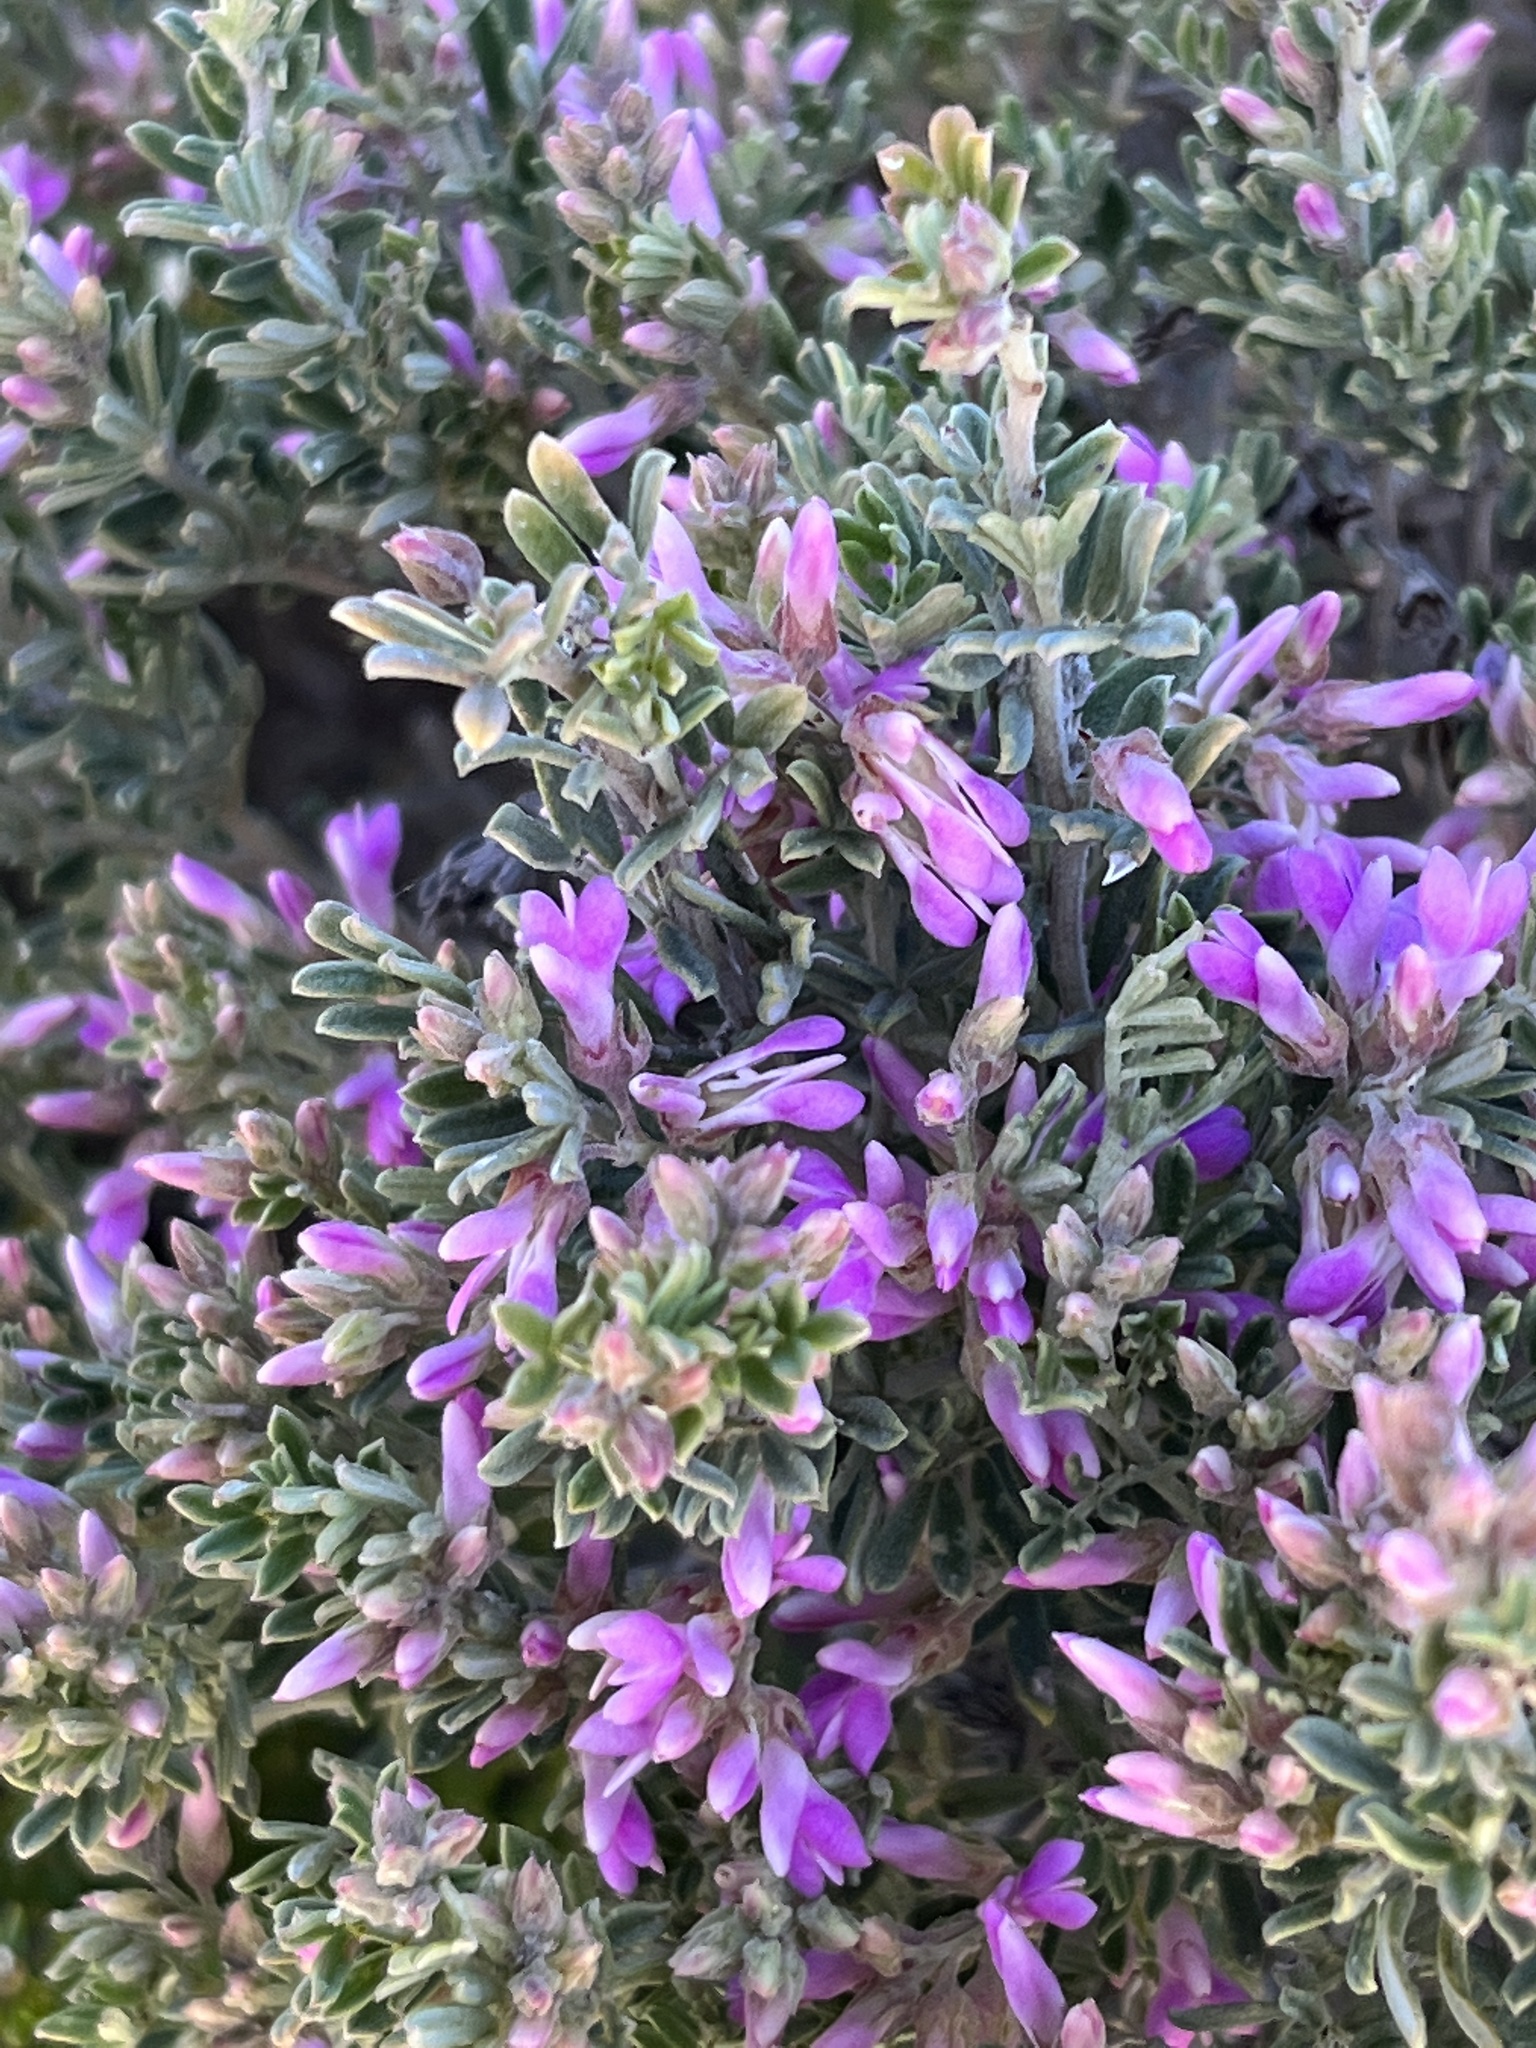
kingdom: Plantae
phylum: Tracheophyta
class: Magnoliopsida
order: Fabales
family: Fabaceae
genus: Indigofera
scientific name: Indigofera brachystachya
